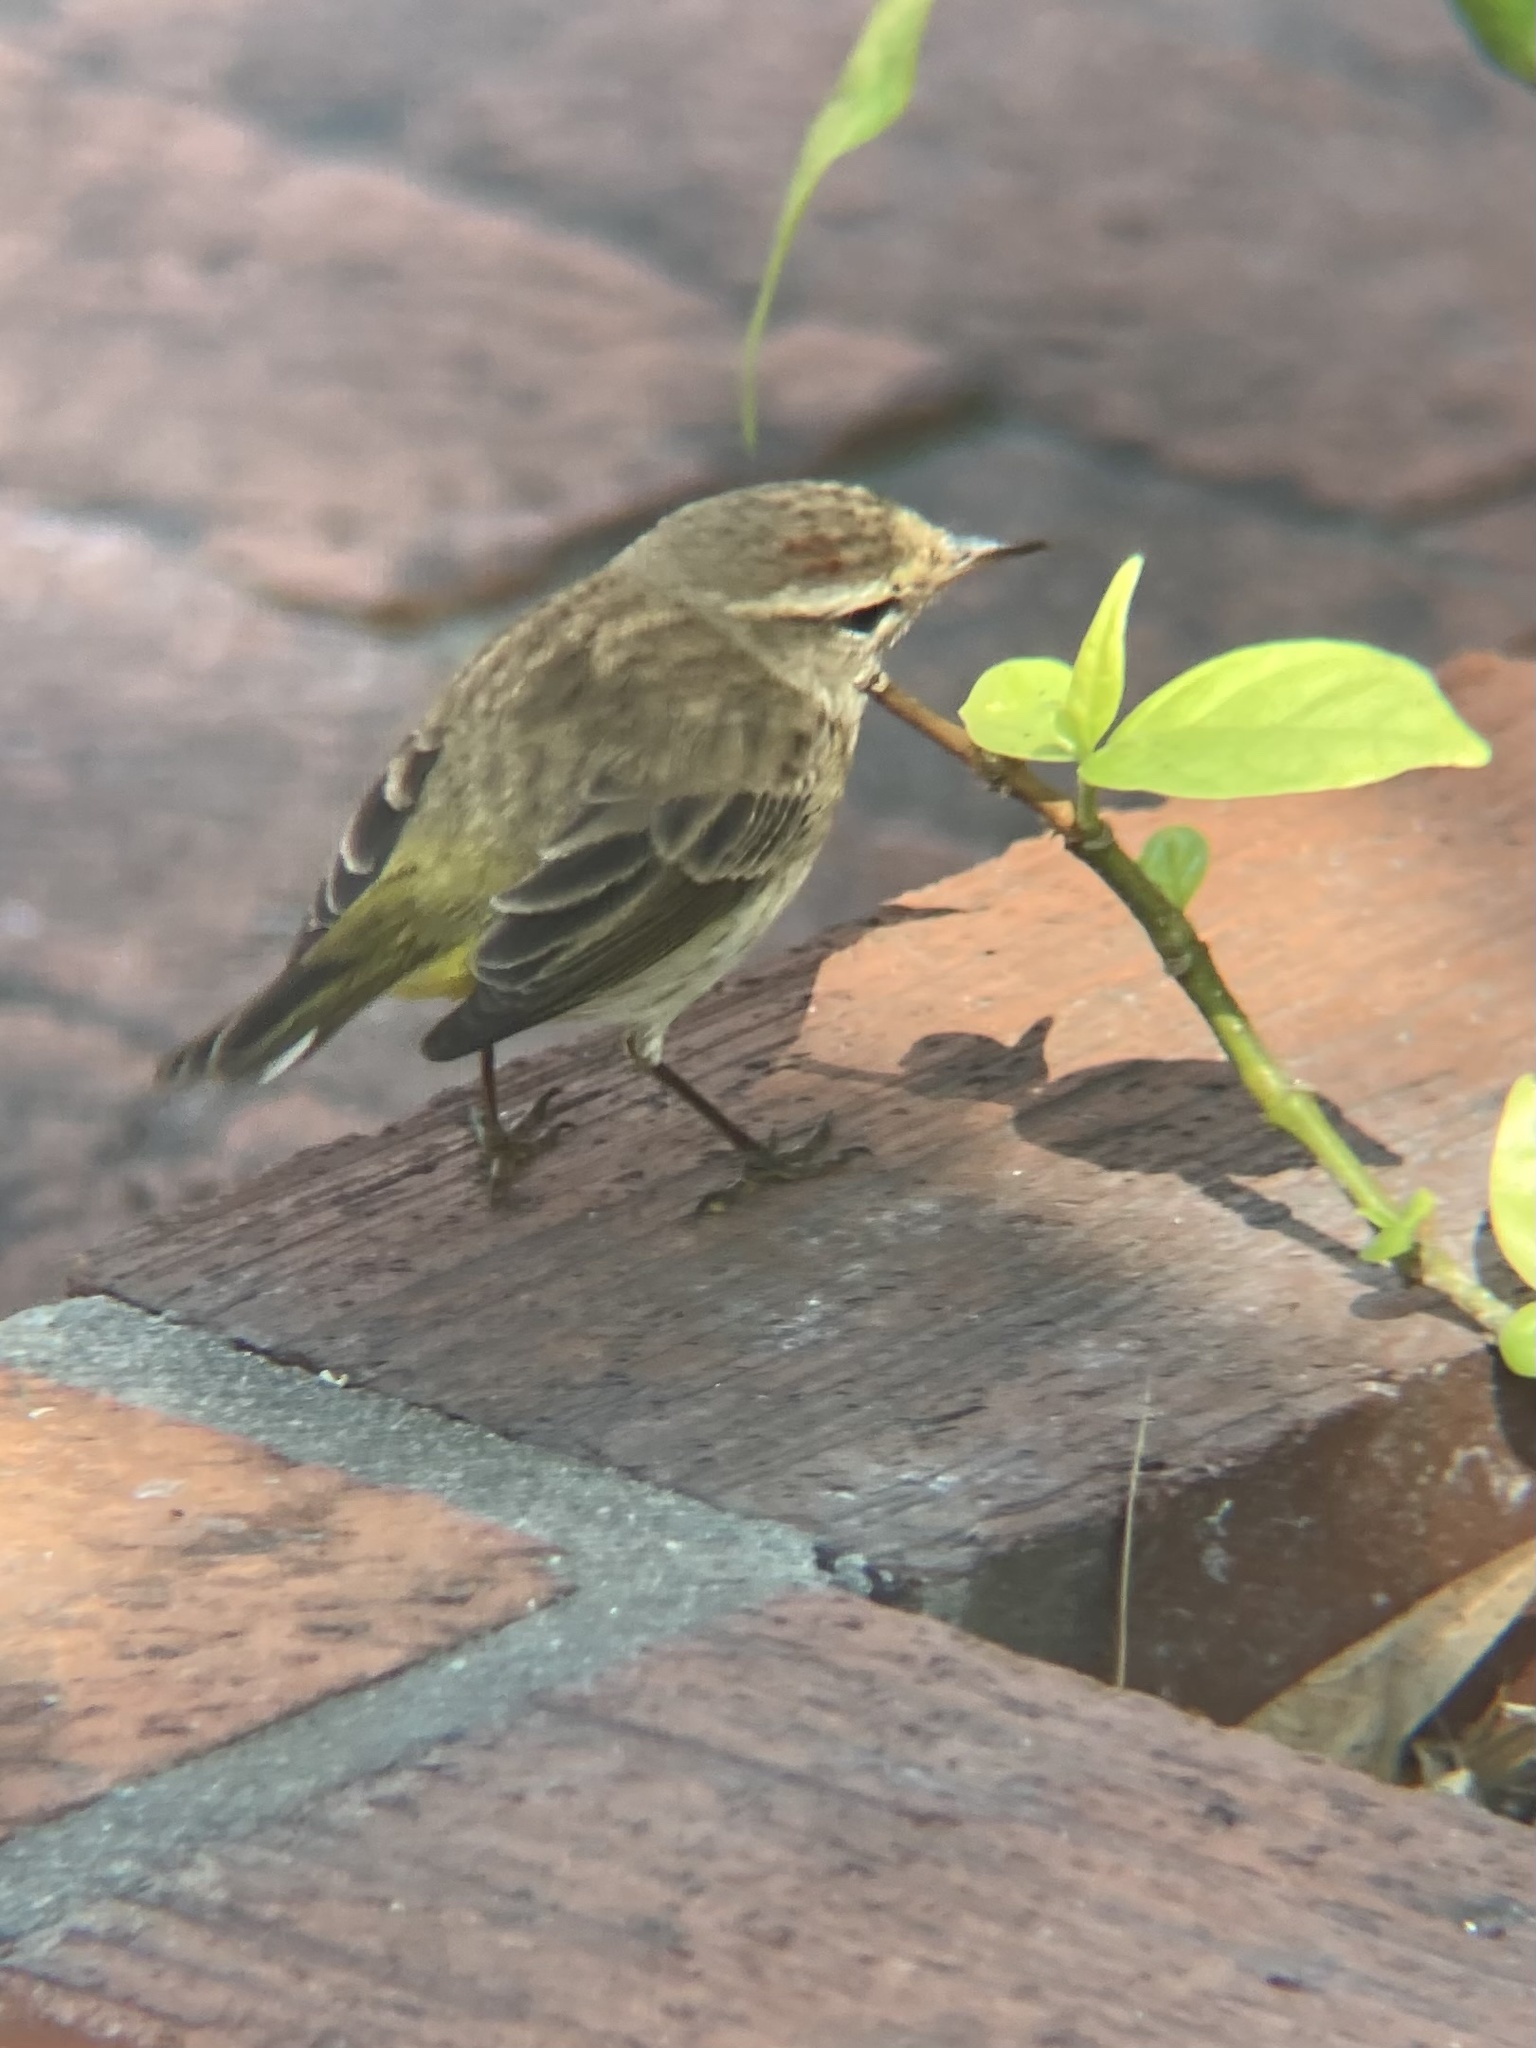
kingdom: Animalia
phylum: Chordata
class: Aves
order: Passeriformes
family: Parulidae
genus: Setophaga
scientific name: Setophaga palmarum
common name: Palm warbler
